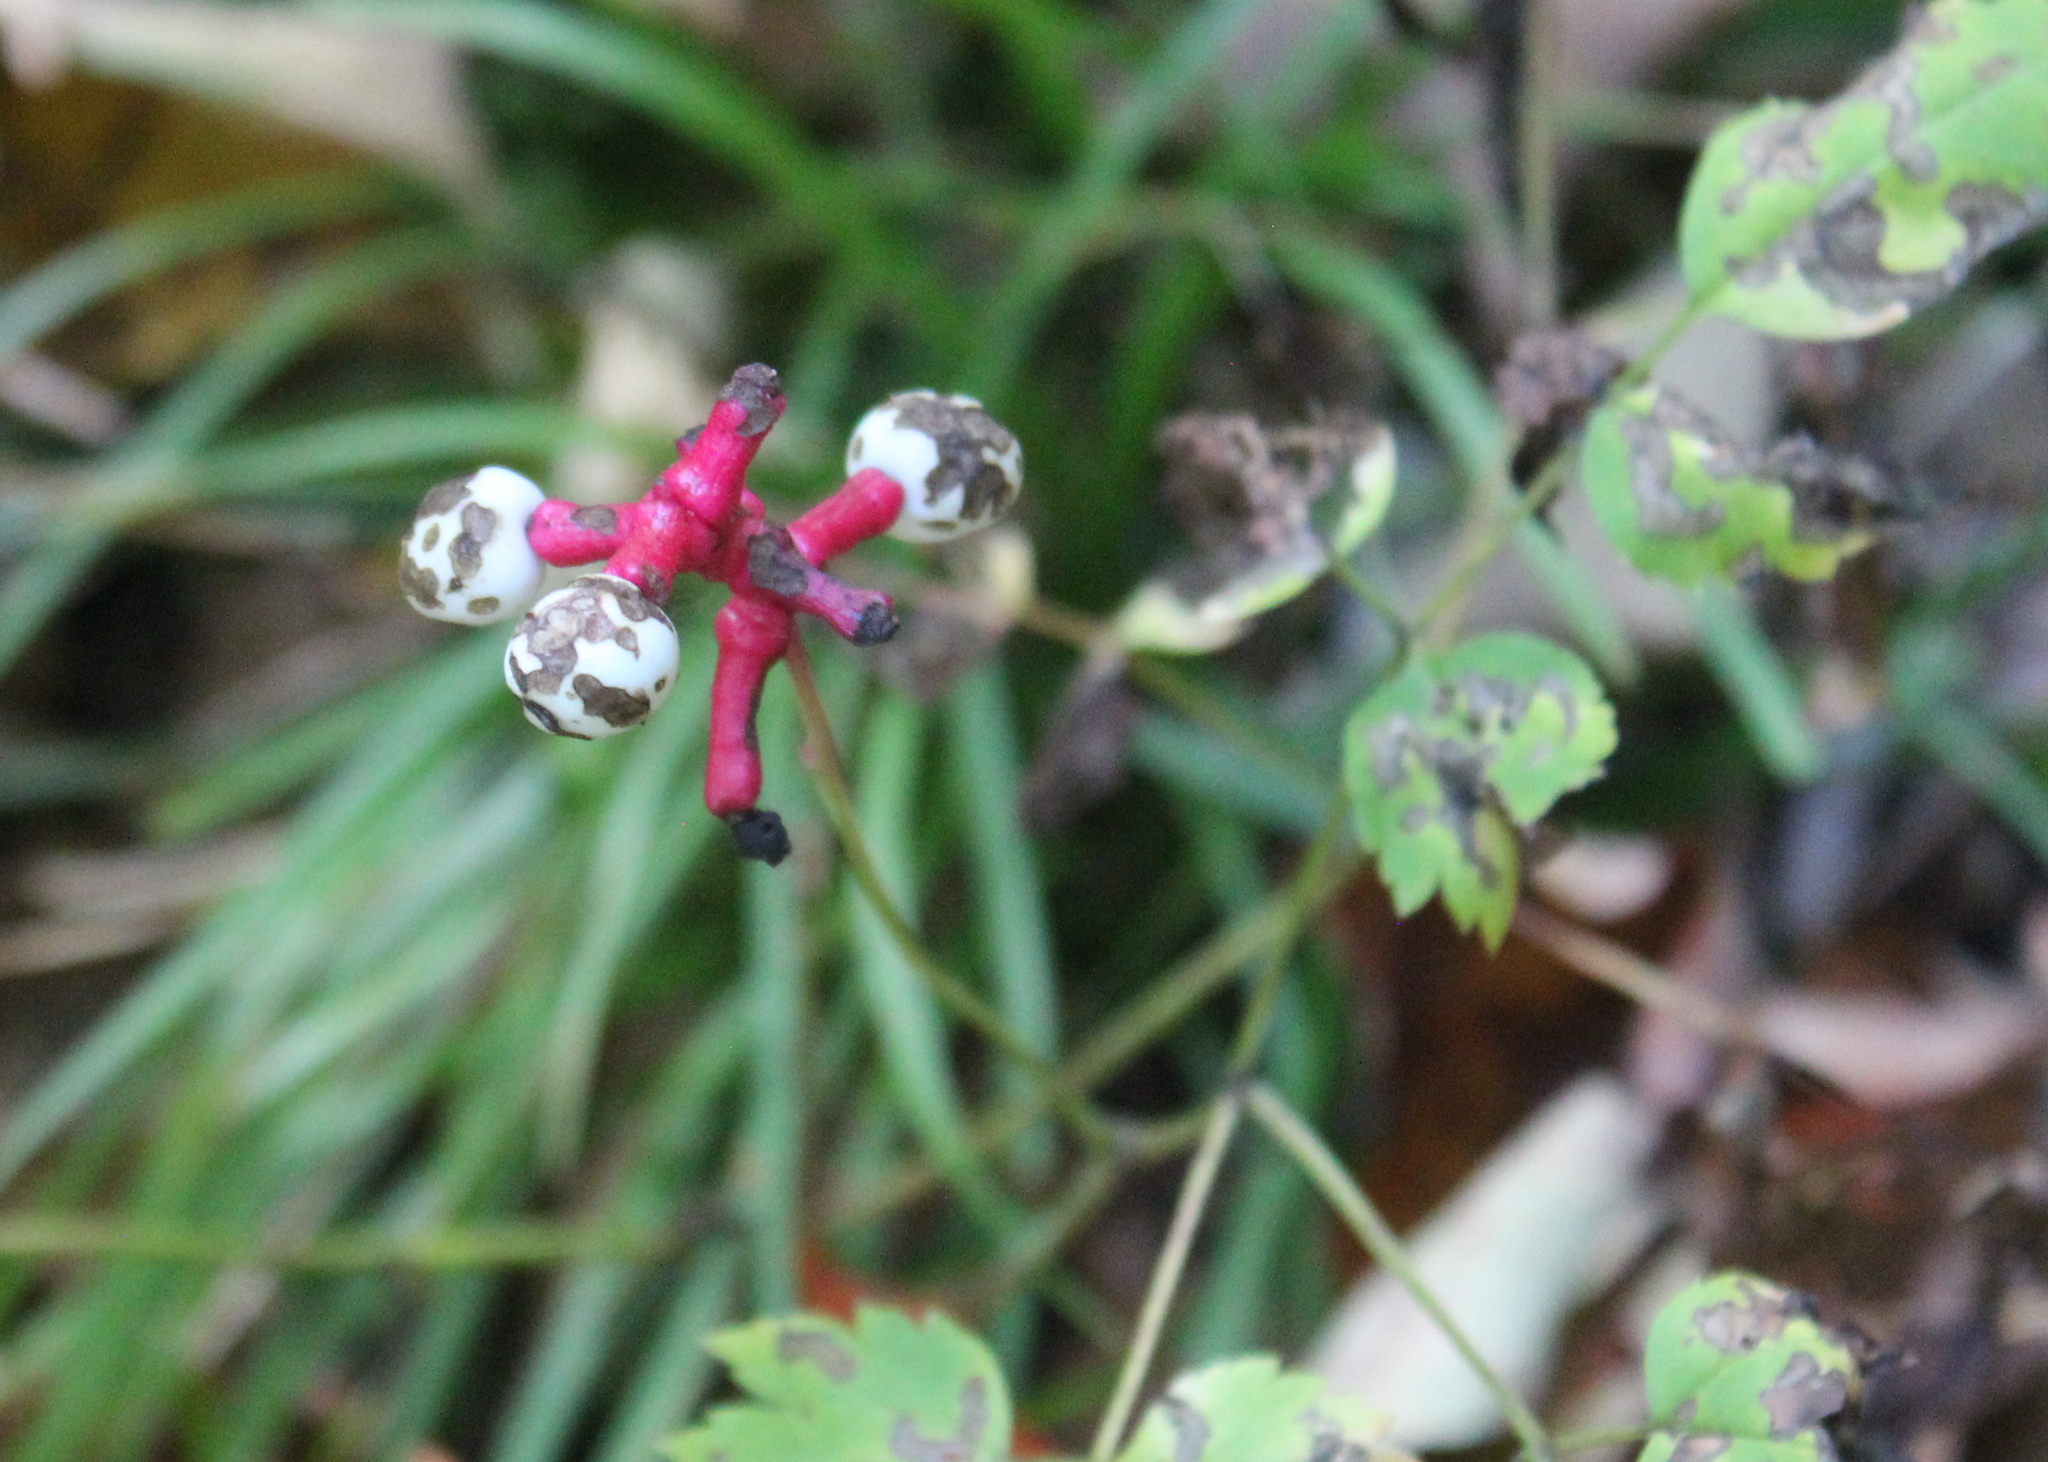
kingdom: Plantae
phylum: Tracheophyta
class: Magnoliopsida
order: Ranunculales
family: Ranunculaceae
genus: Actaea
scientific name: Actaea pachypoda
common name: Doll's-eyes
